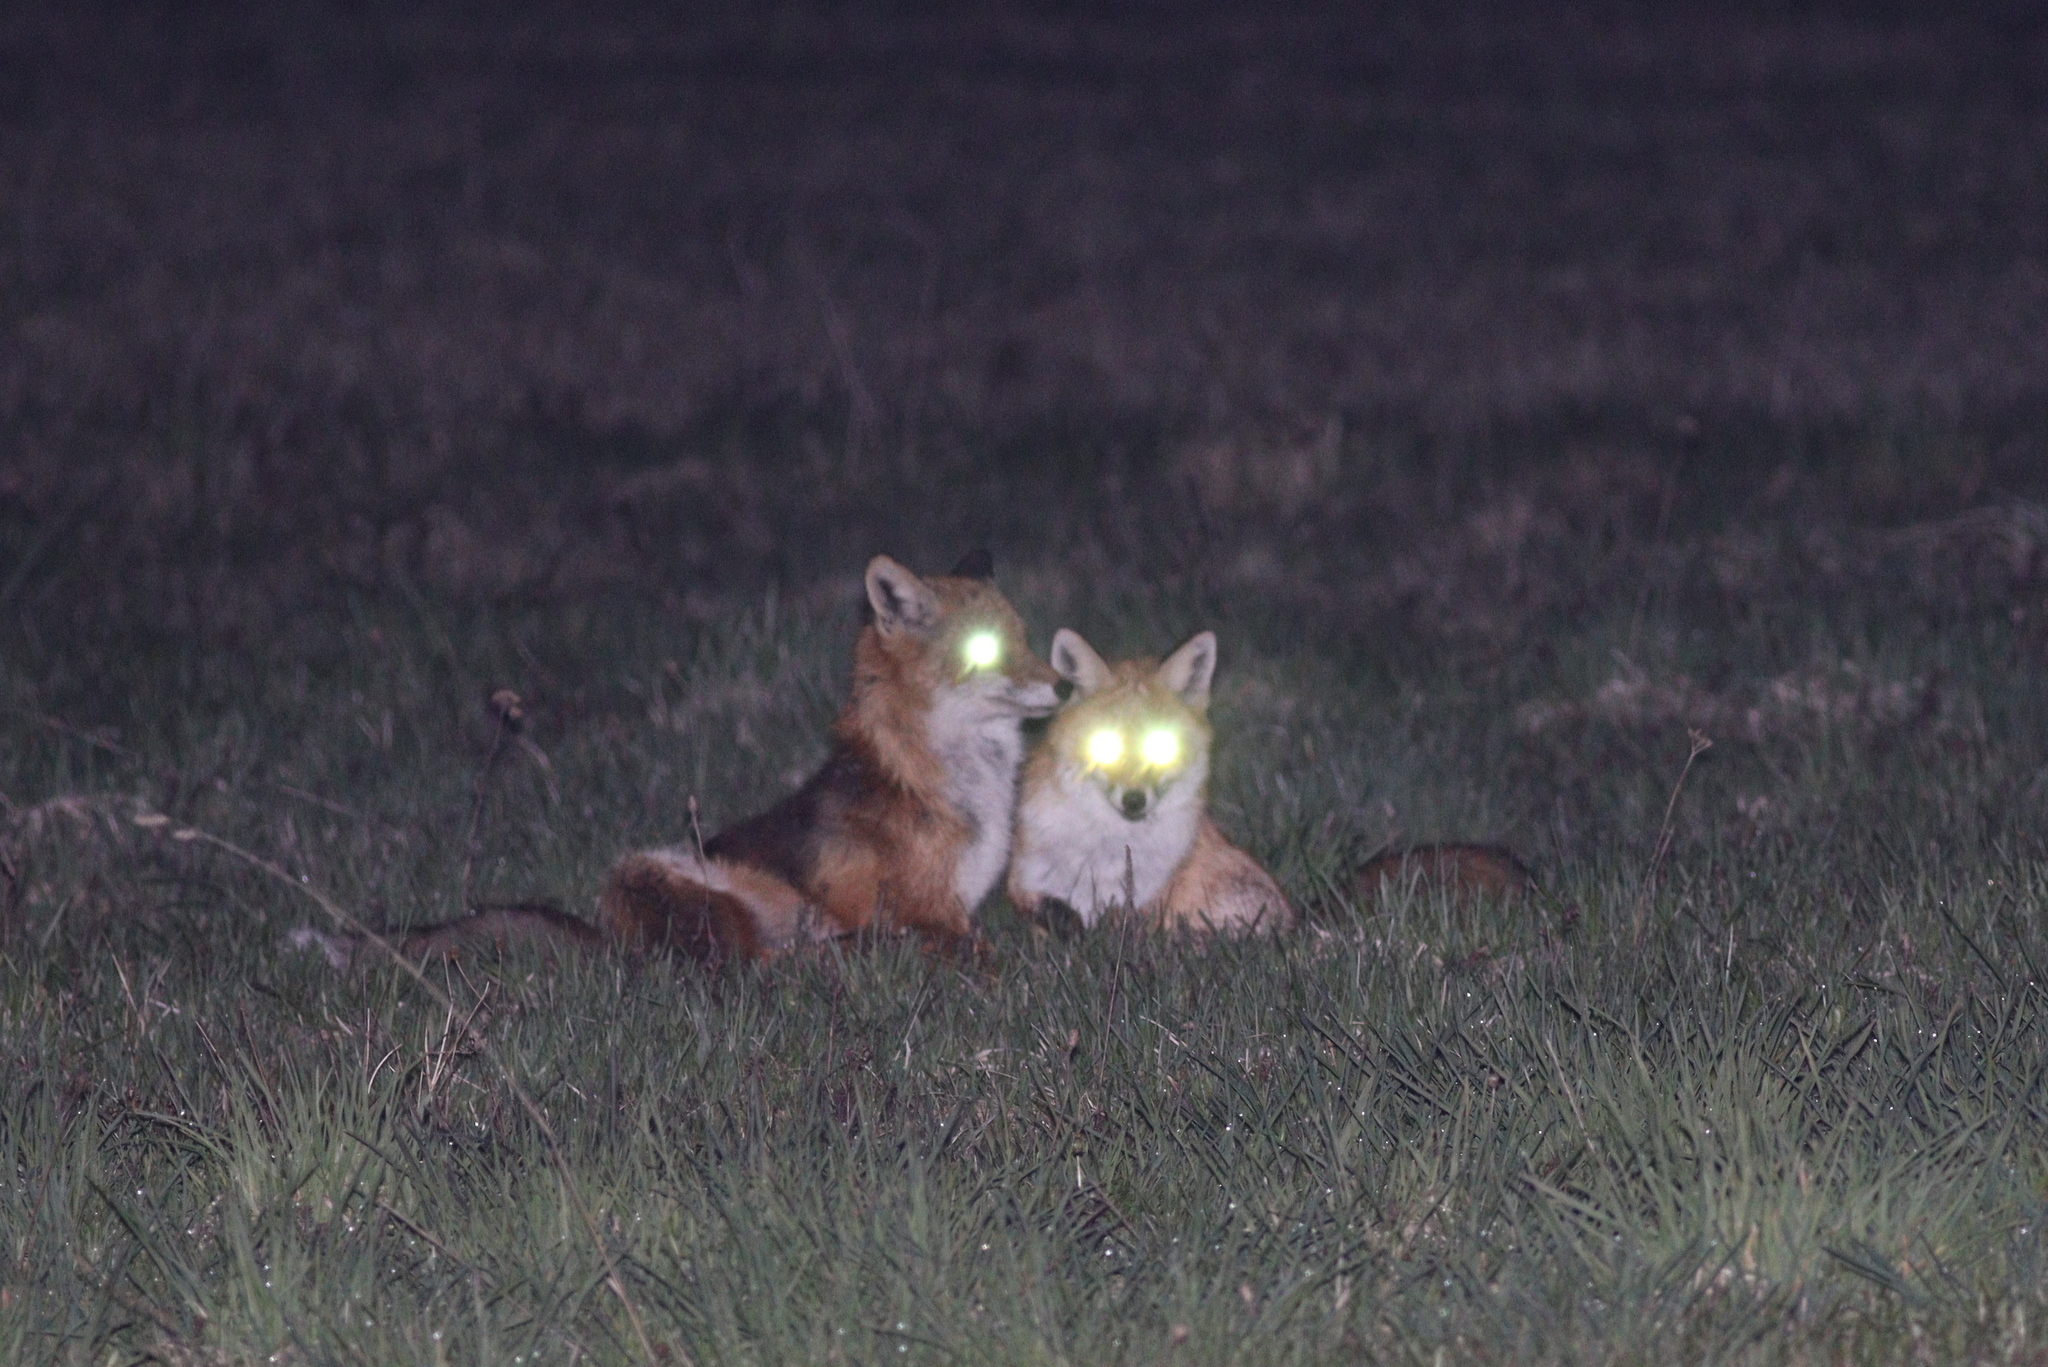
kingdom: Animalia
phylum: Chordata
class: Mammalia
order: Carnivora
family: Canidae
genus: Vulpes
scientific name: Vulpes vulpes
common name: Red fox
